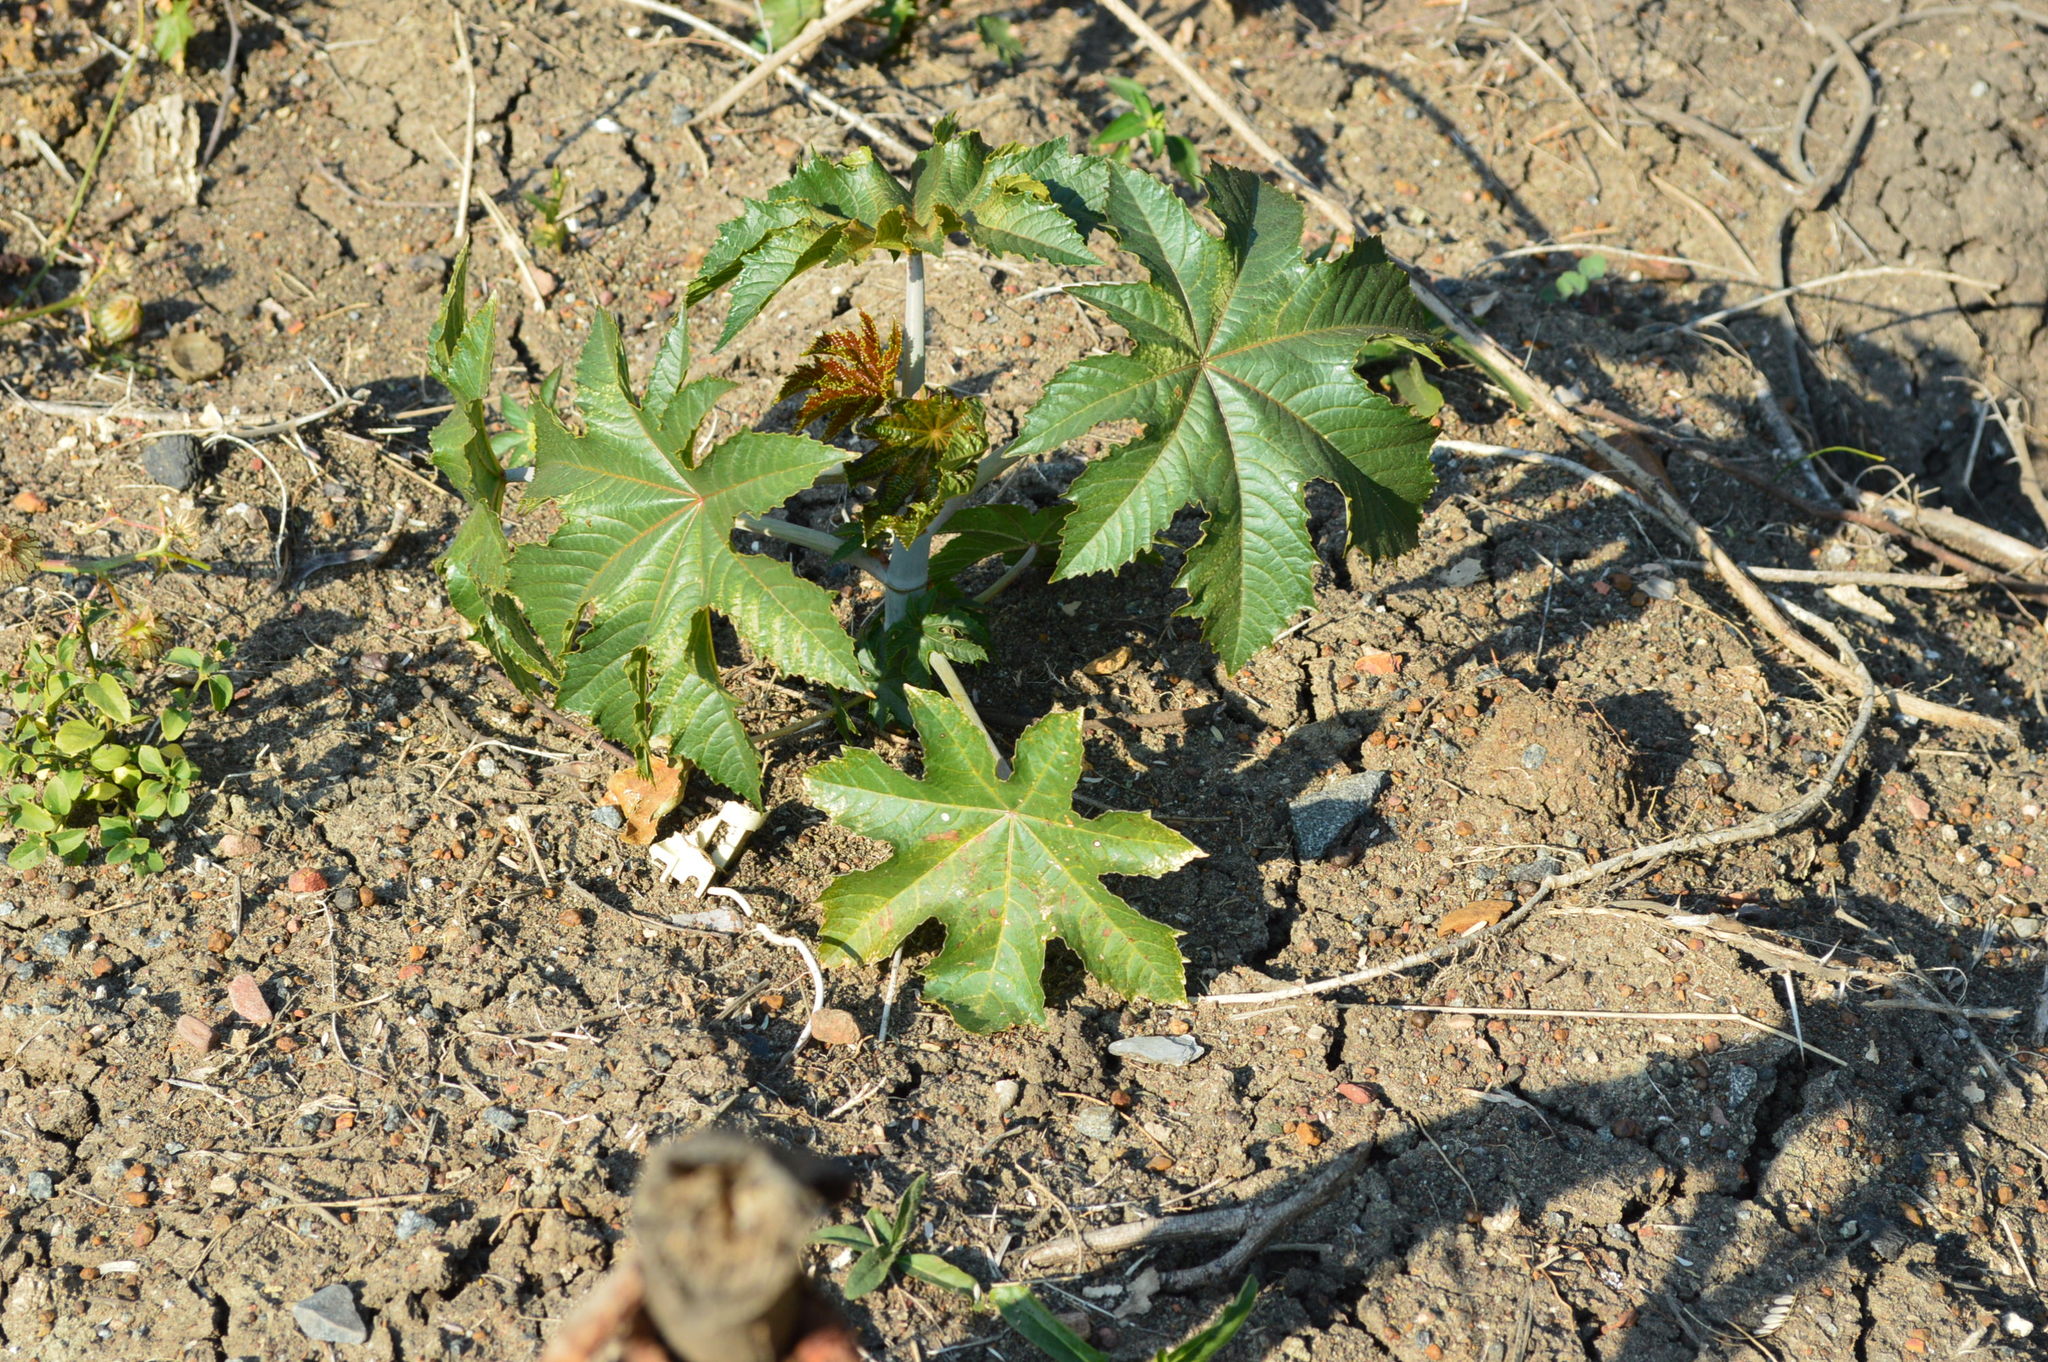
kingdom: Plantae
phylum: Tracheophyta
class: Magnoliopsida
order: Malpighiales
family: Euphorbiaceae
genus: Ricinus
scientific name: Ricinus communis
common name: Castor-oil-plant
